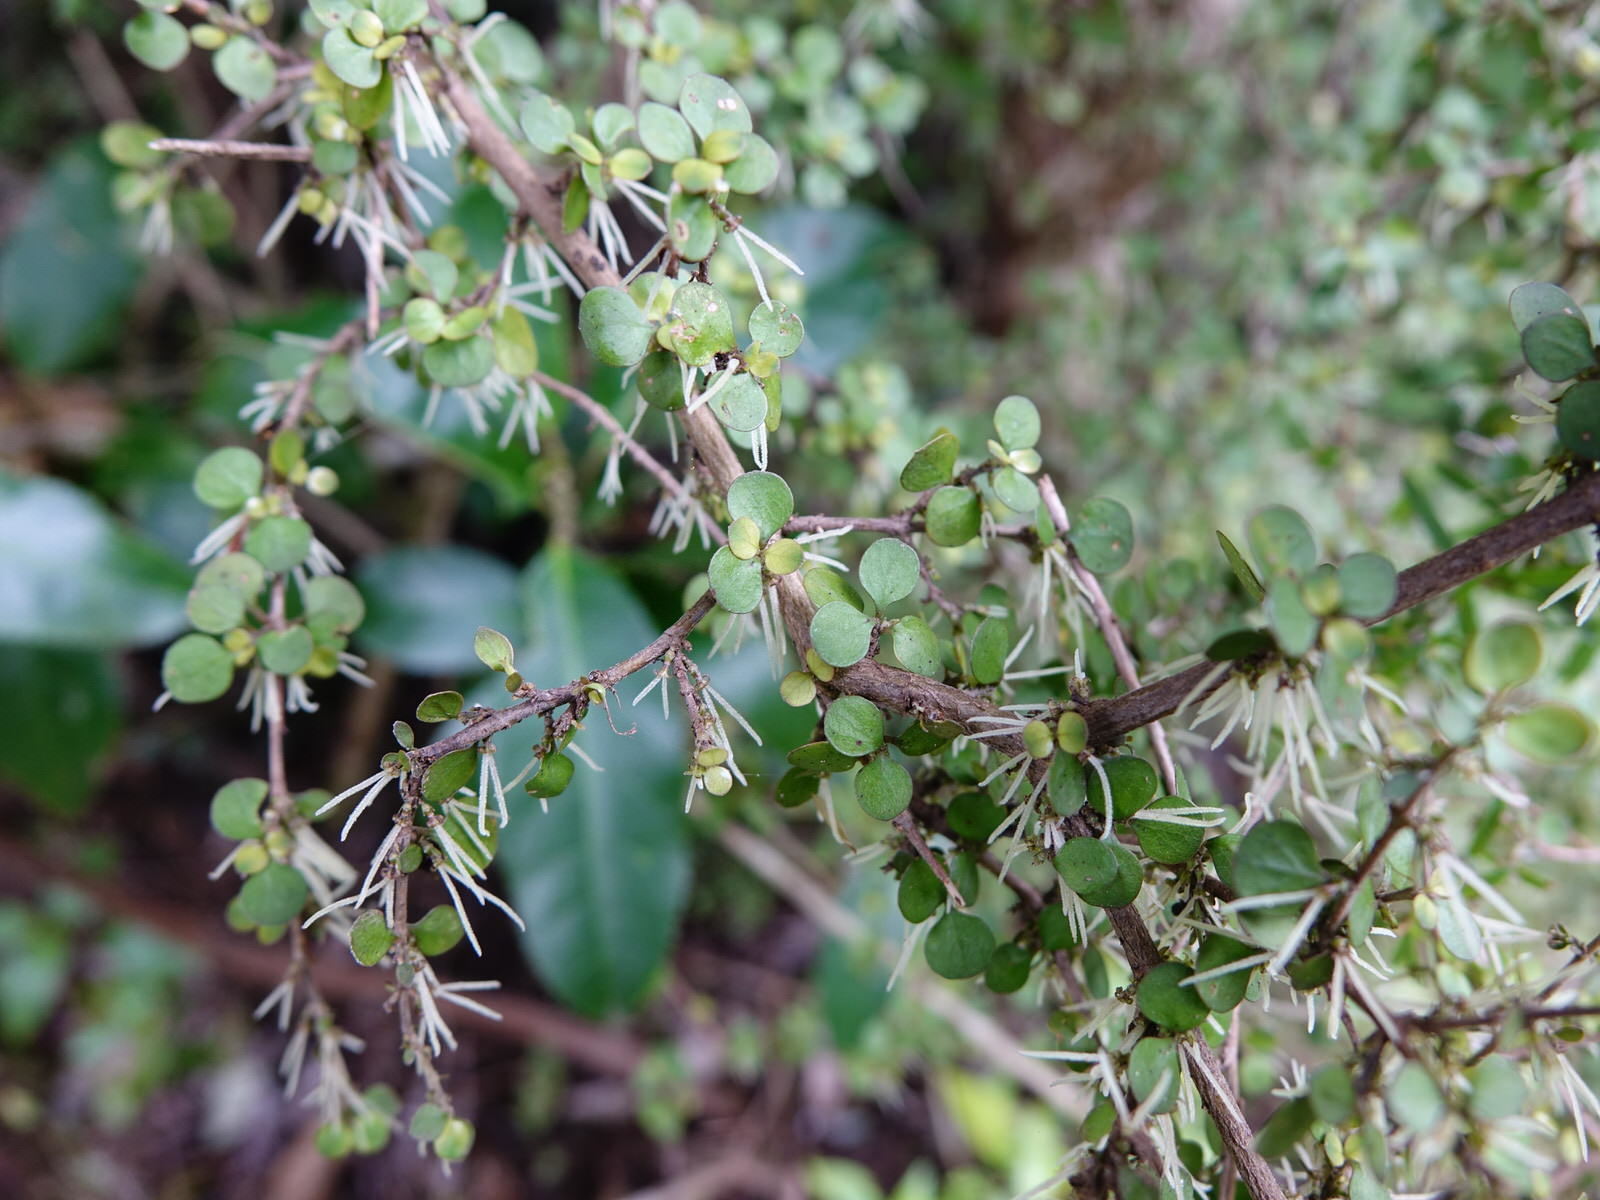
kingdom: Plantae
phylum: Tracheophyta
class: Magnoliopsida
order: Gentianales
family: Rubiaceae
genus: Coprosma
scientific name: Coprosma rhamnoides
